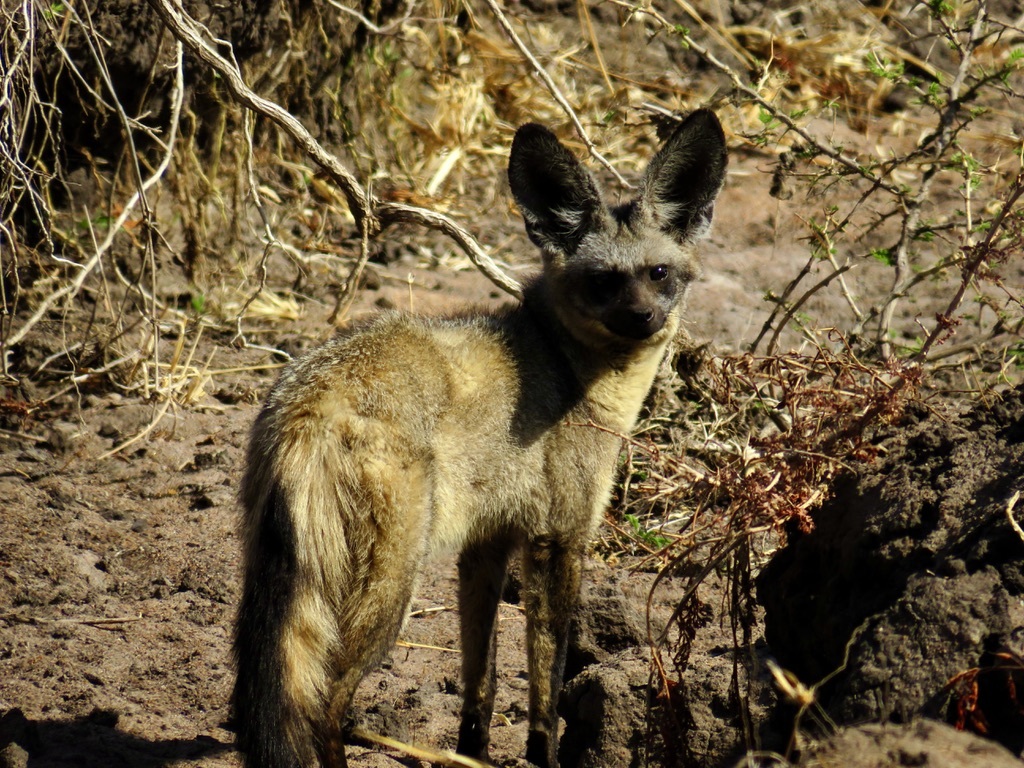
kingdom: Animalia
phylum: Chordata
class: Mammalia
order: Carnivora
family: Canidae
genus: Otocyon
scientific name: Otocyon megalotis
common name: Bat-eared fox
